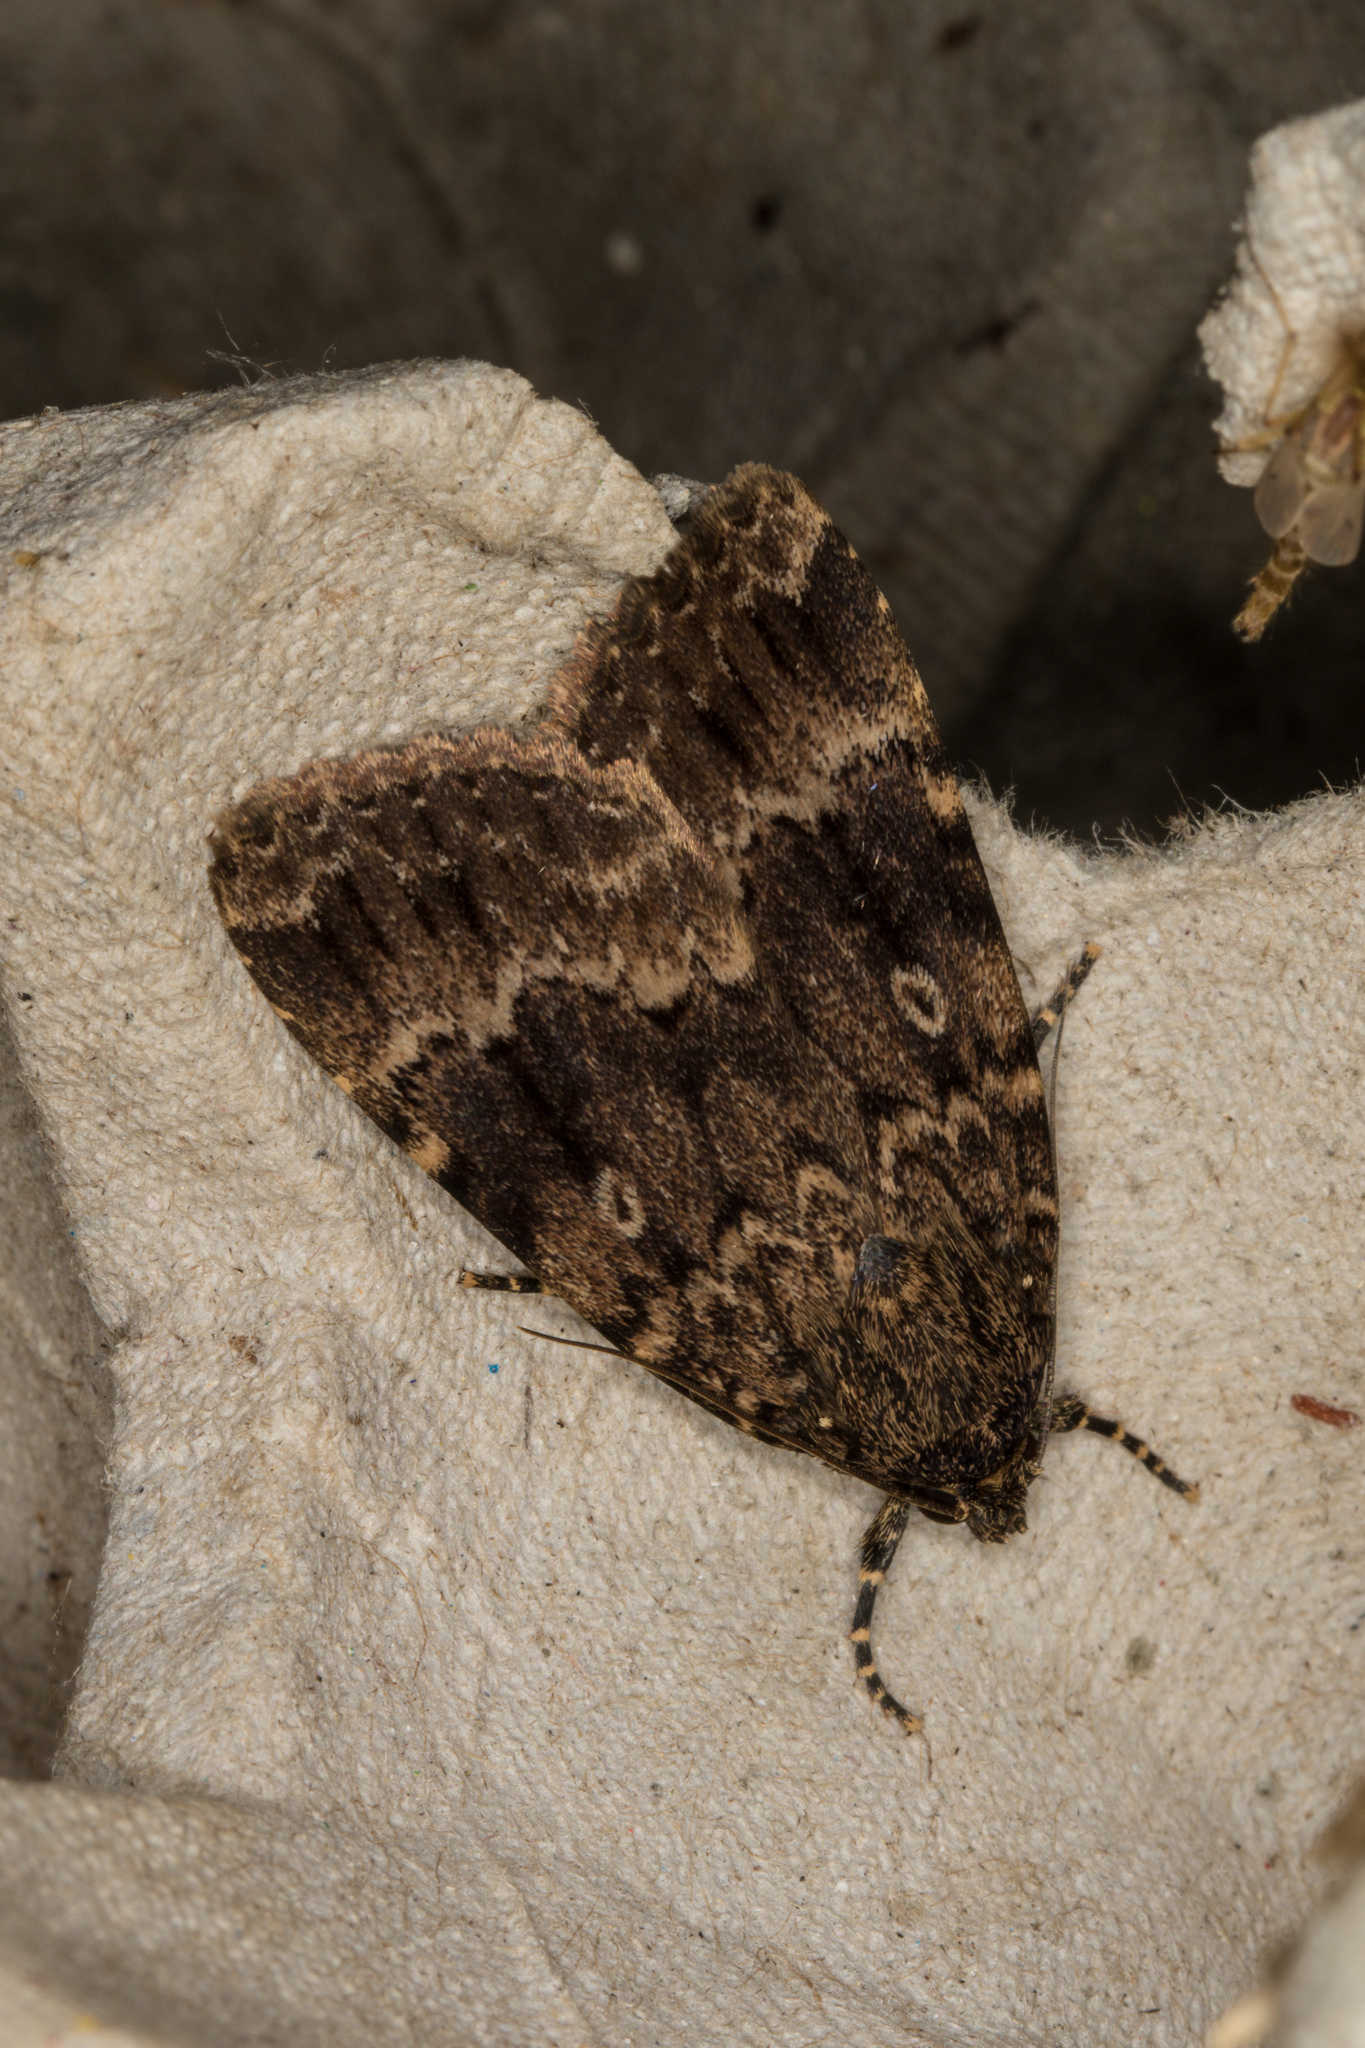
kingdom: Animalia
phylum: Arthropoda
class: Insecta
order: Lepidoptera
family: Noctuidae
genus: Amphipyra
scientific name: Amphipyra berbera
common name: Svensson's copper underwing
